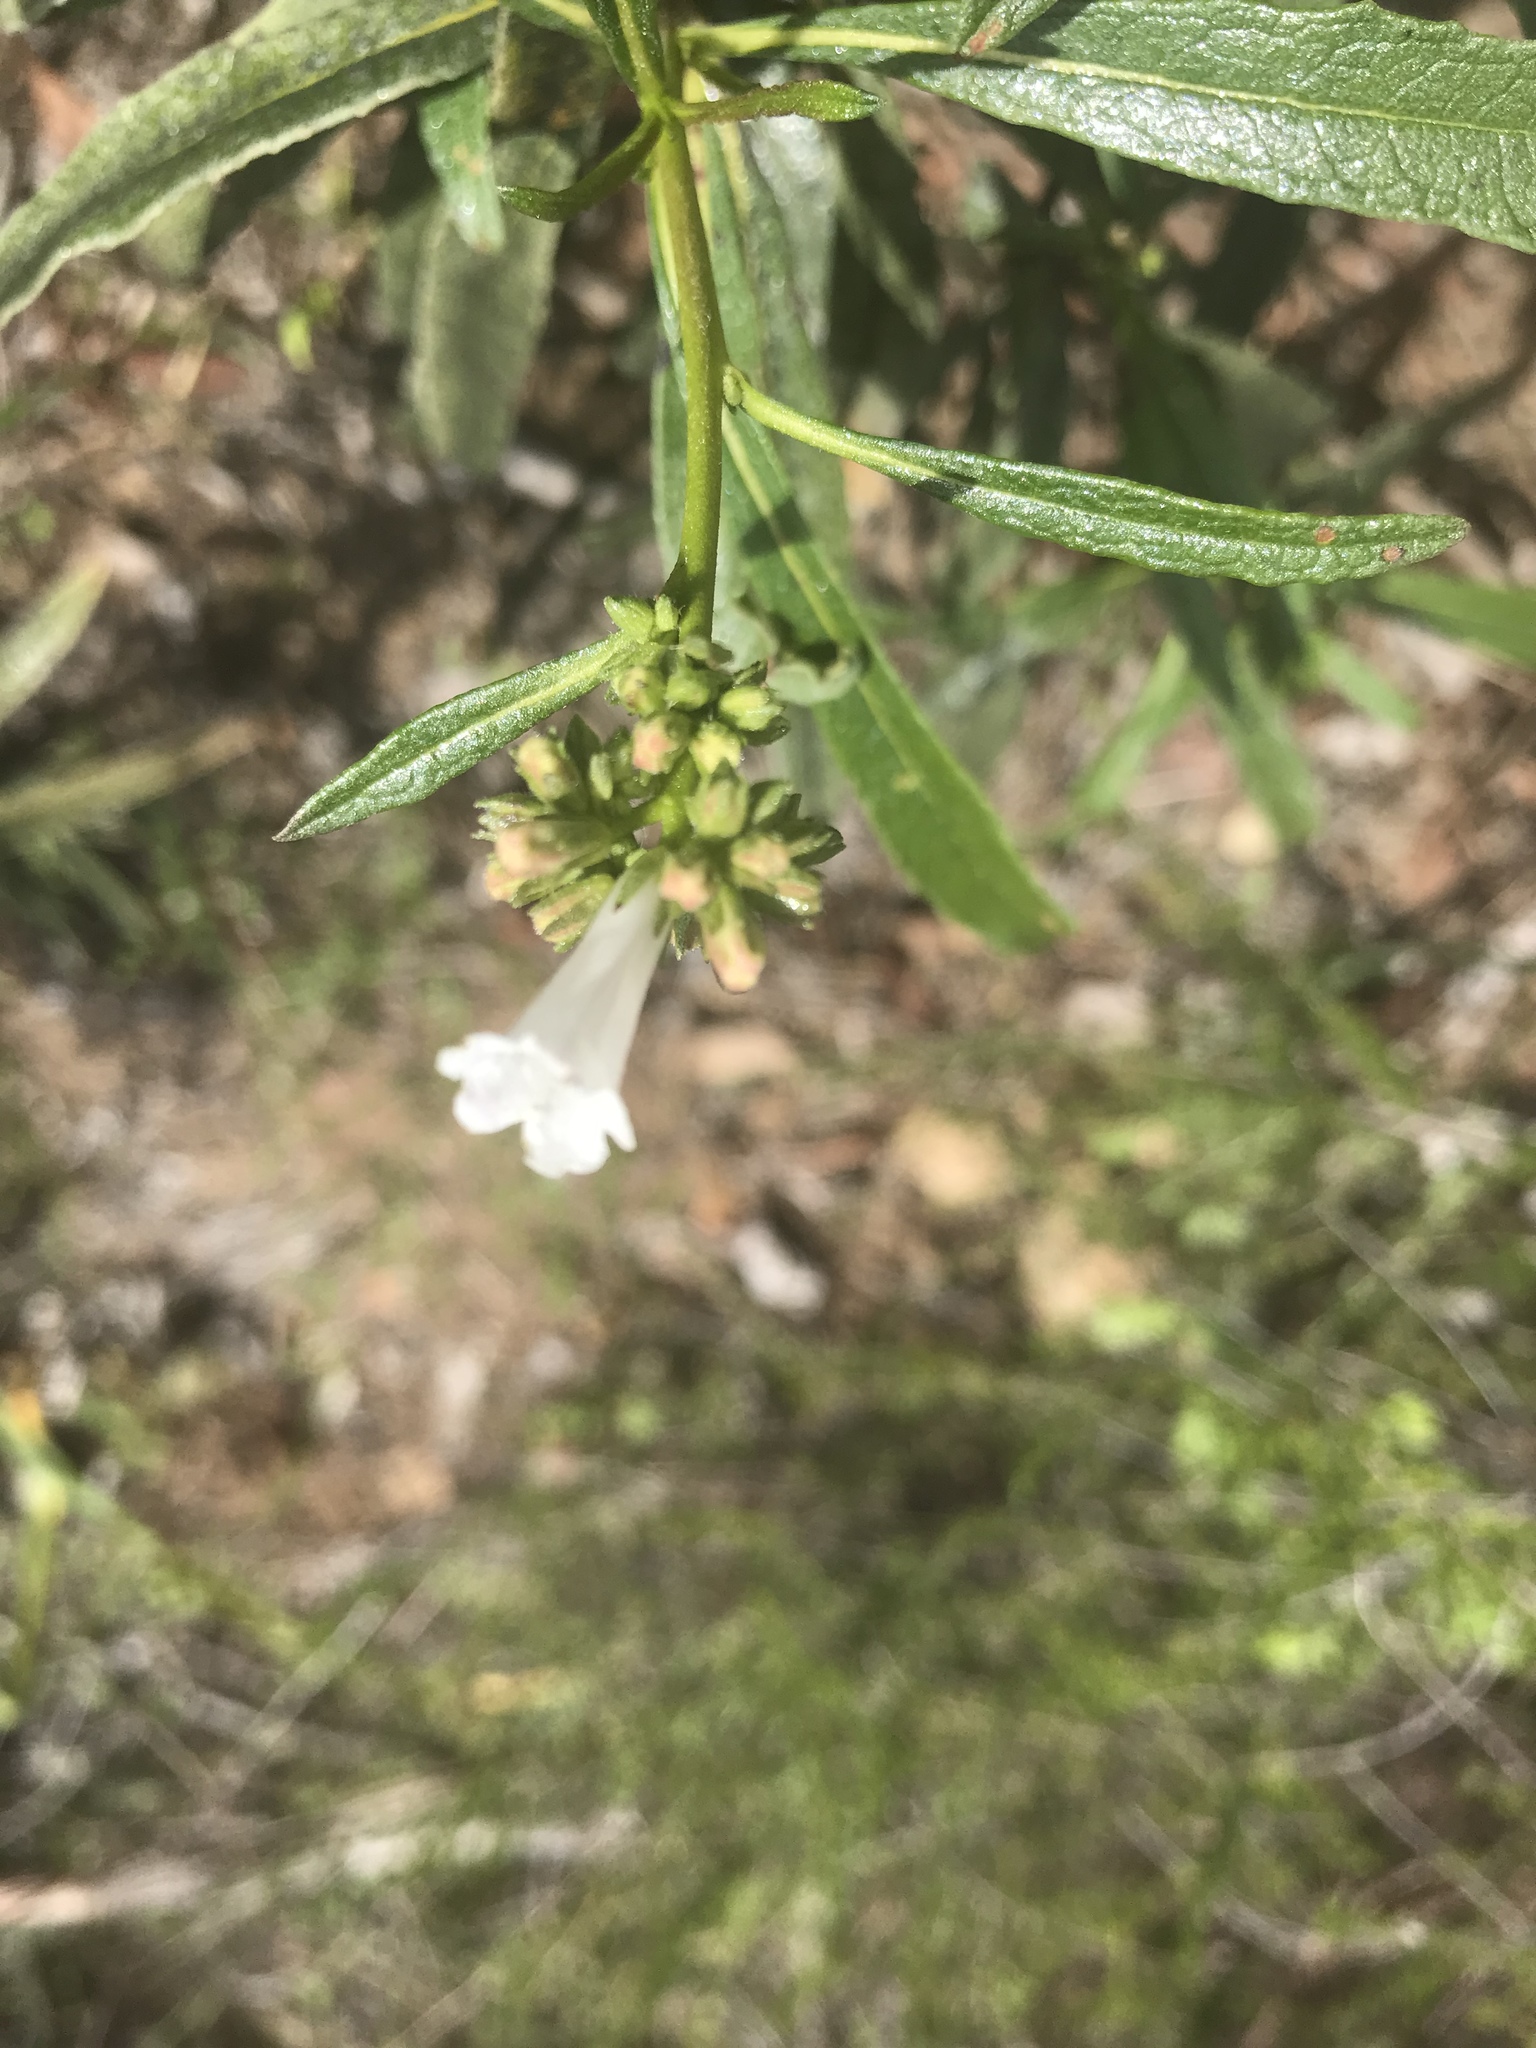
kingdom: Plantae
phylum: Tracheophyta
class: Magnoliopsida
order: Boraginales
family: Namaceae
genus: Eriodictyon
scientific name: Eriodictyon californicum
